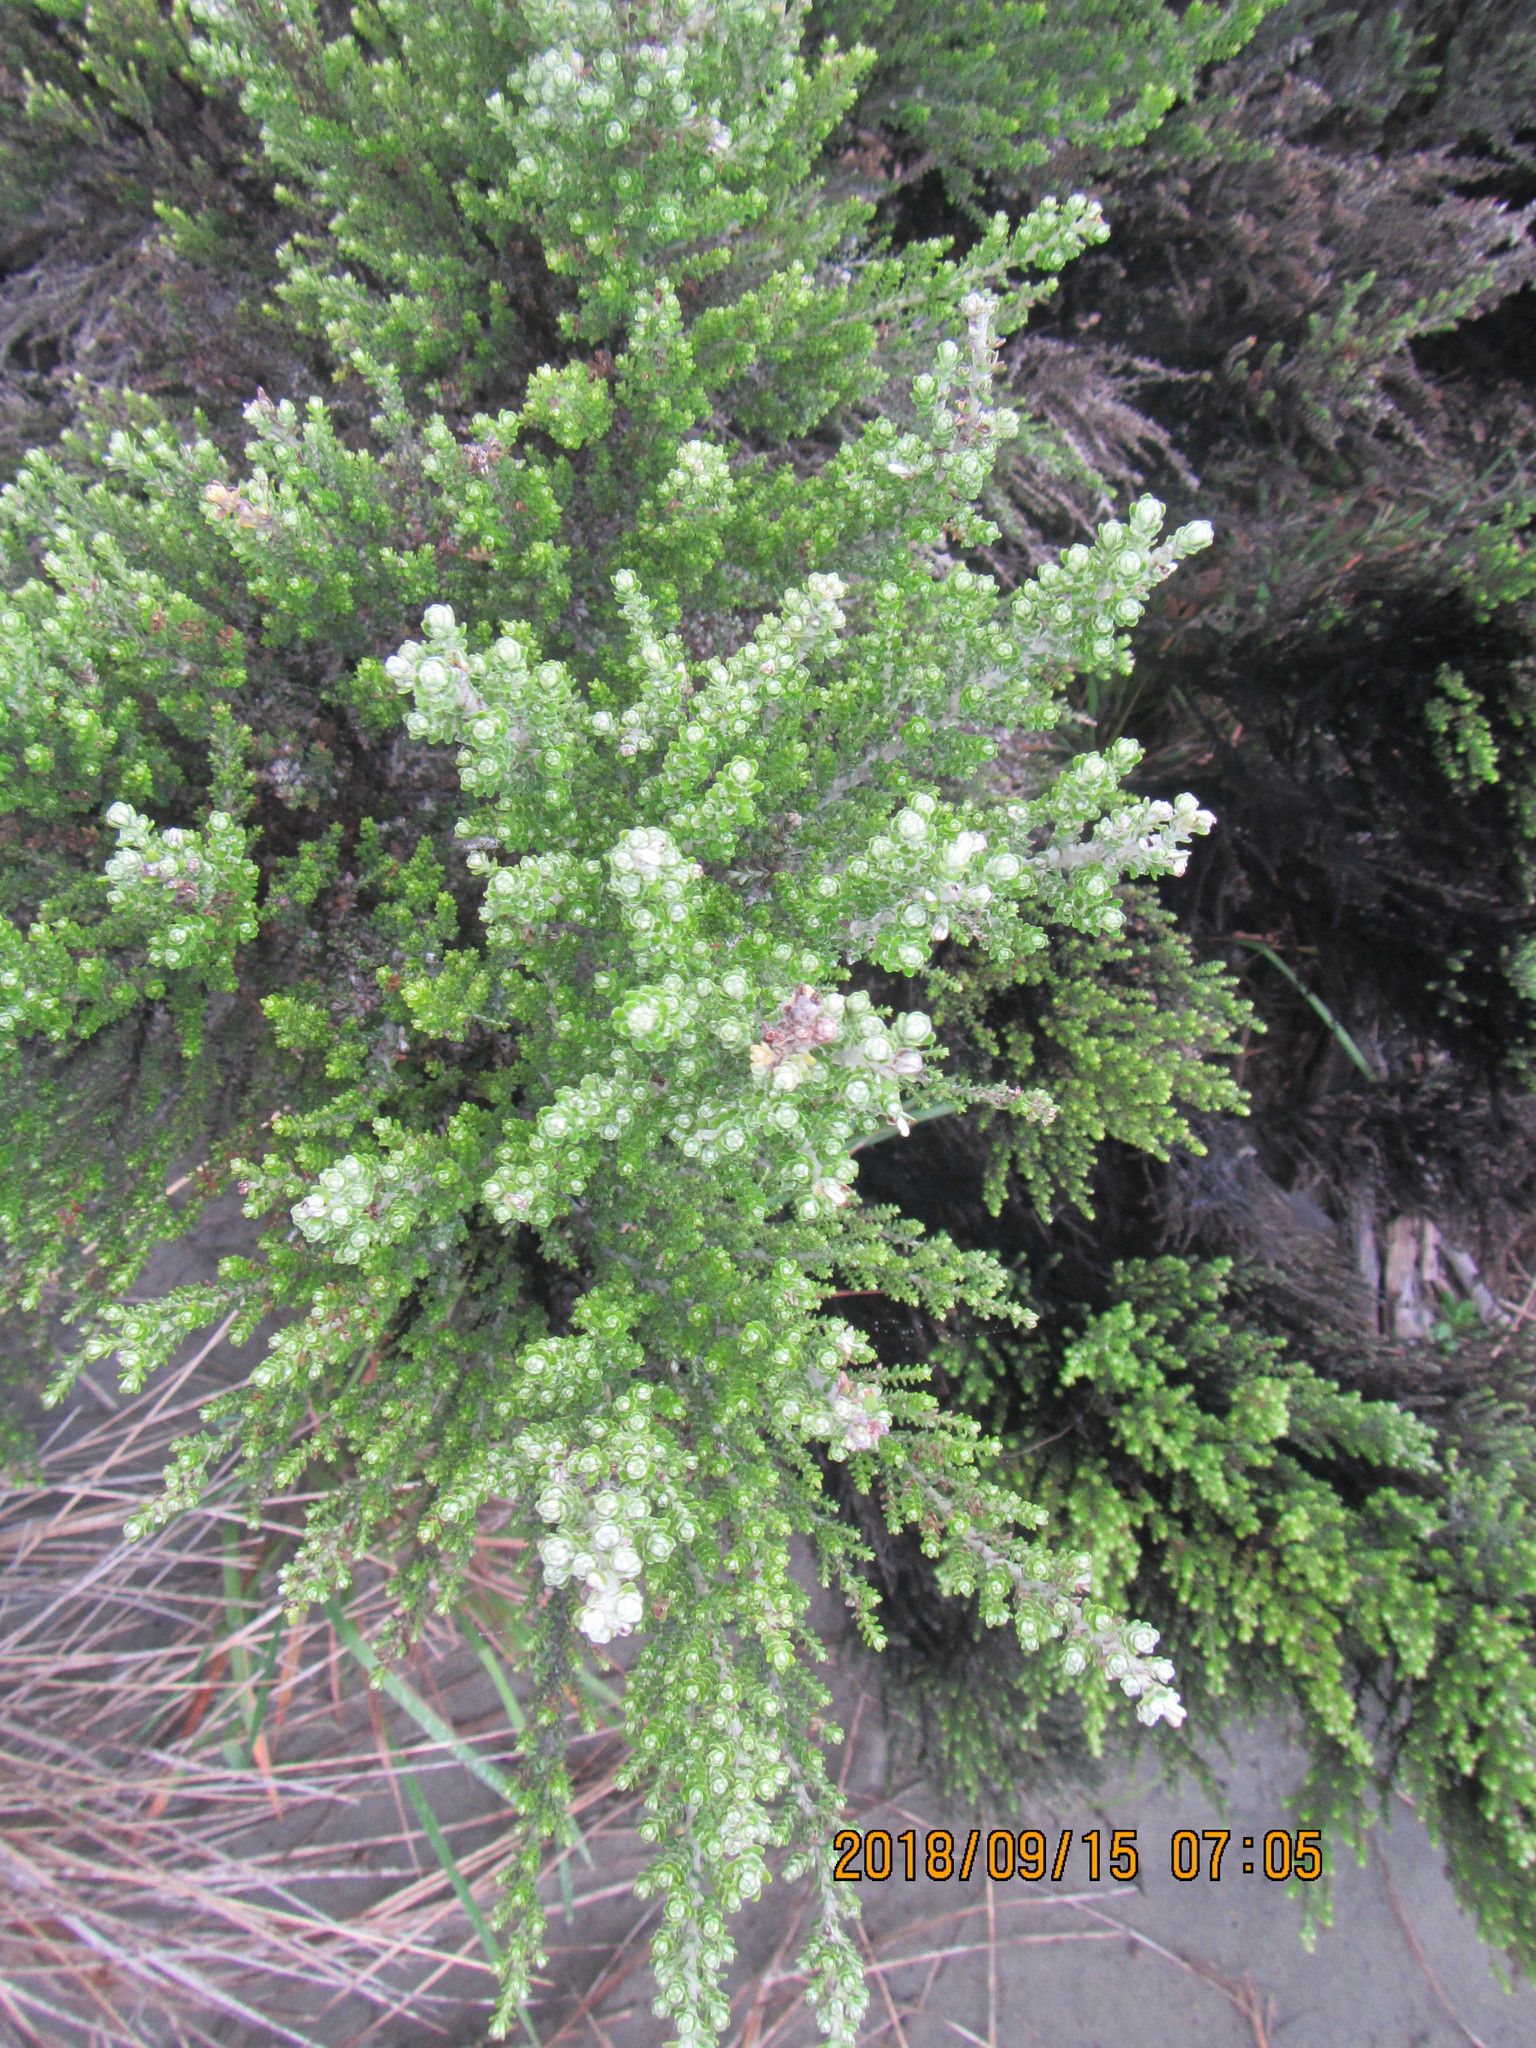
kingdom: Plantae
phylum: Tracheophyta
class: Magnoliopsida
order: Asterales
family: Asteraceae
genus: Ozothamnus
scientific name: Ozothamnus leptophyllus
